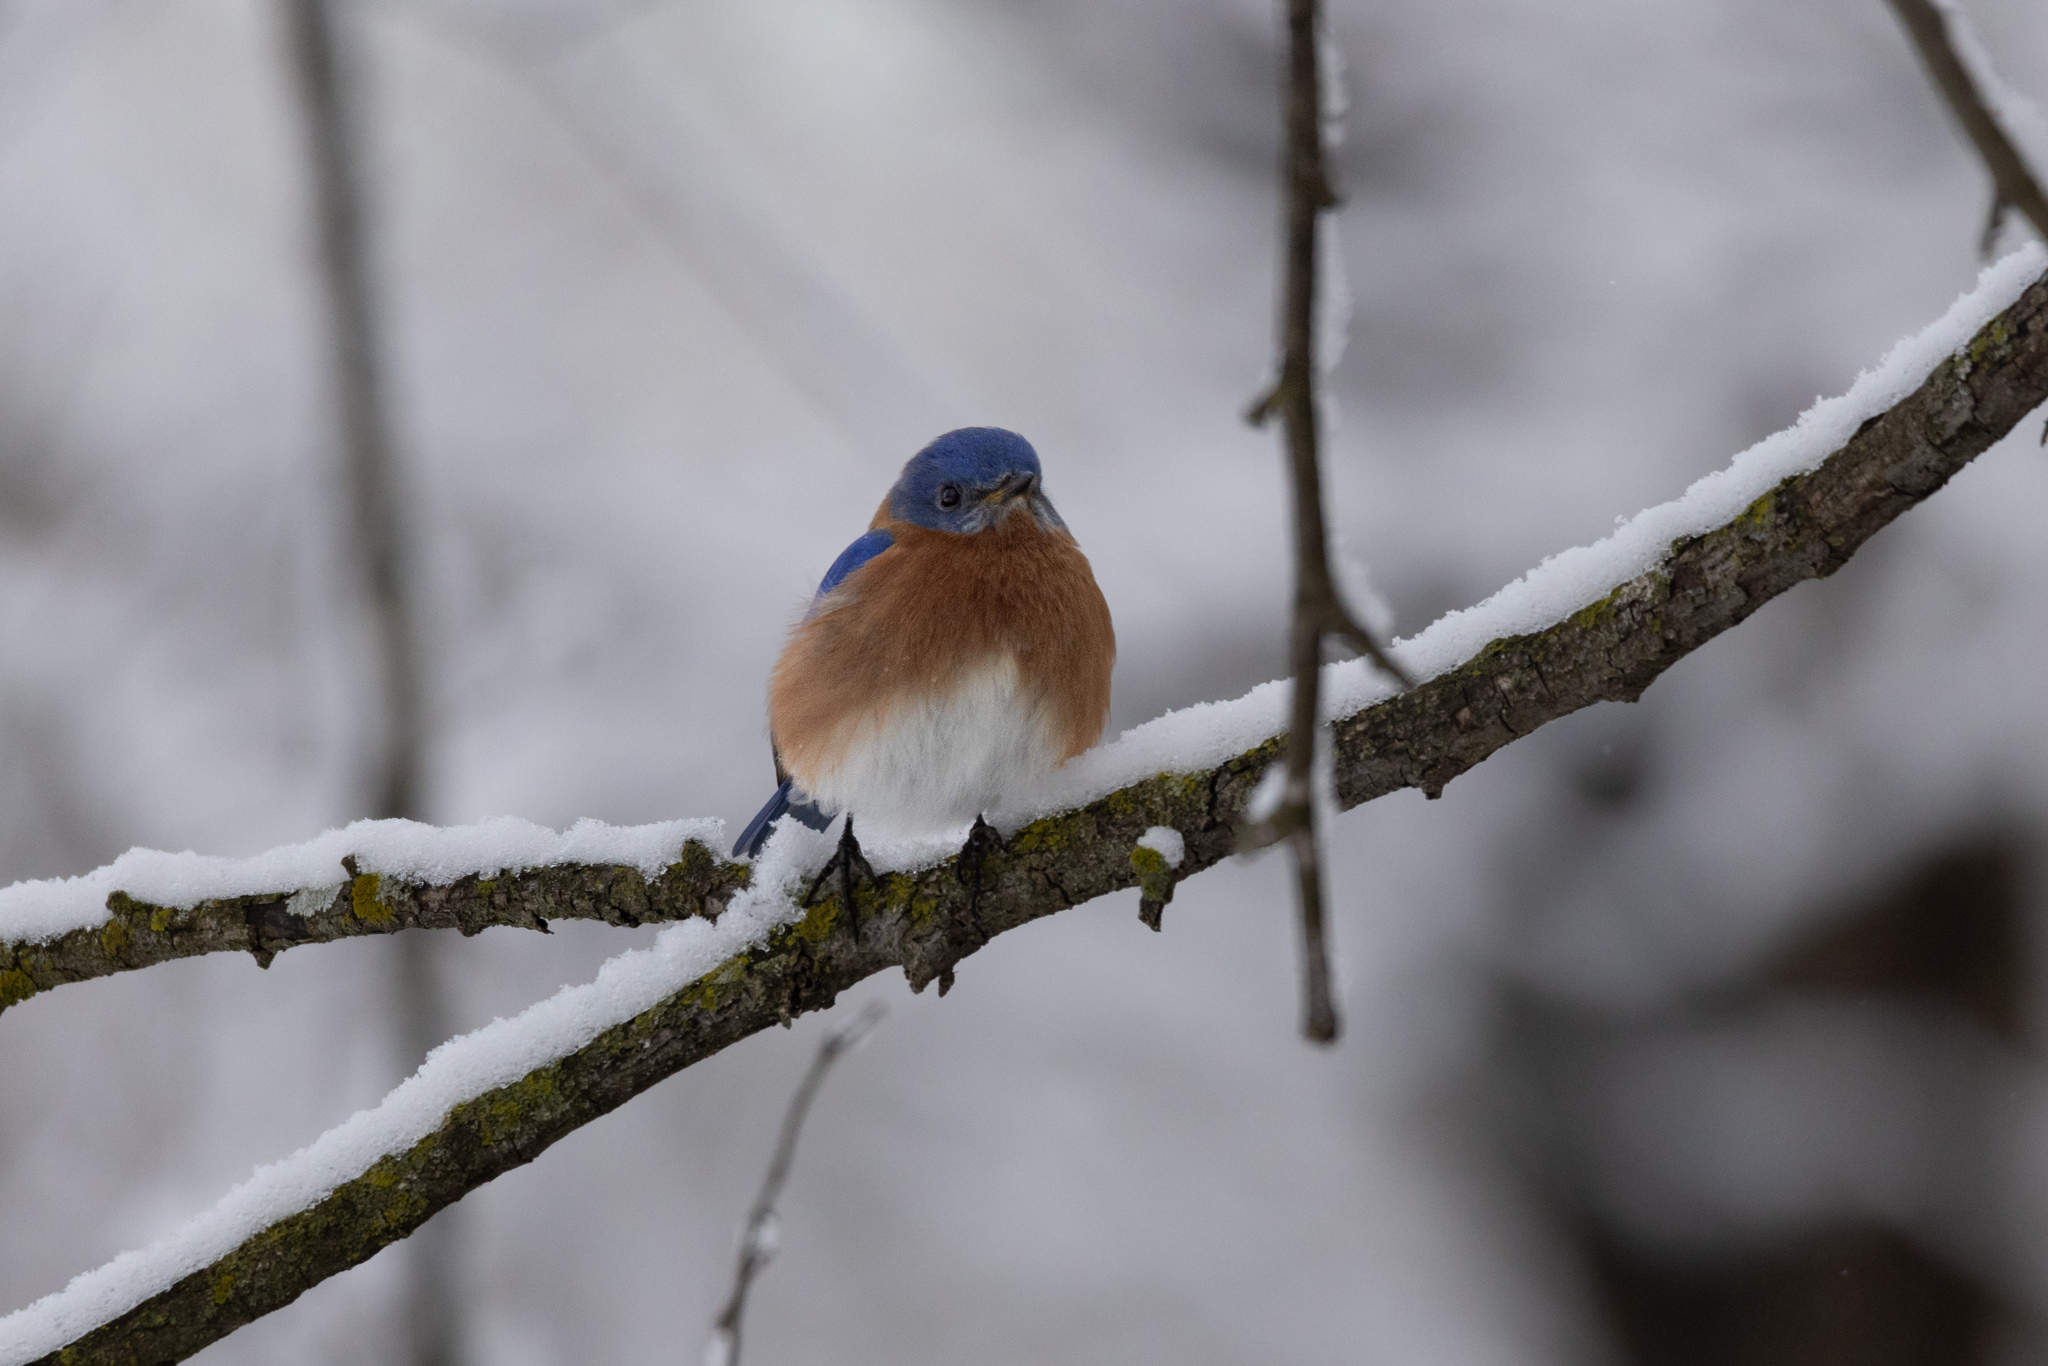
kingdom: Animalia
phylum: Chordata
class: Aves
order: Passeriformes
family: Turdidae
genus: Sialia
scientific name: Sialia sialis
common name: Eastern bluebird
